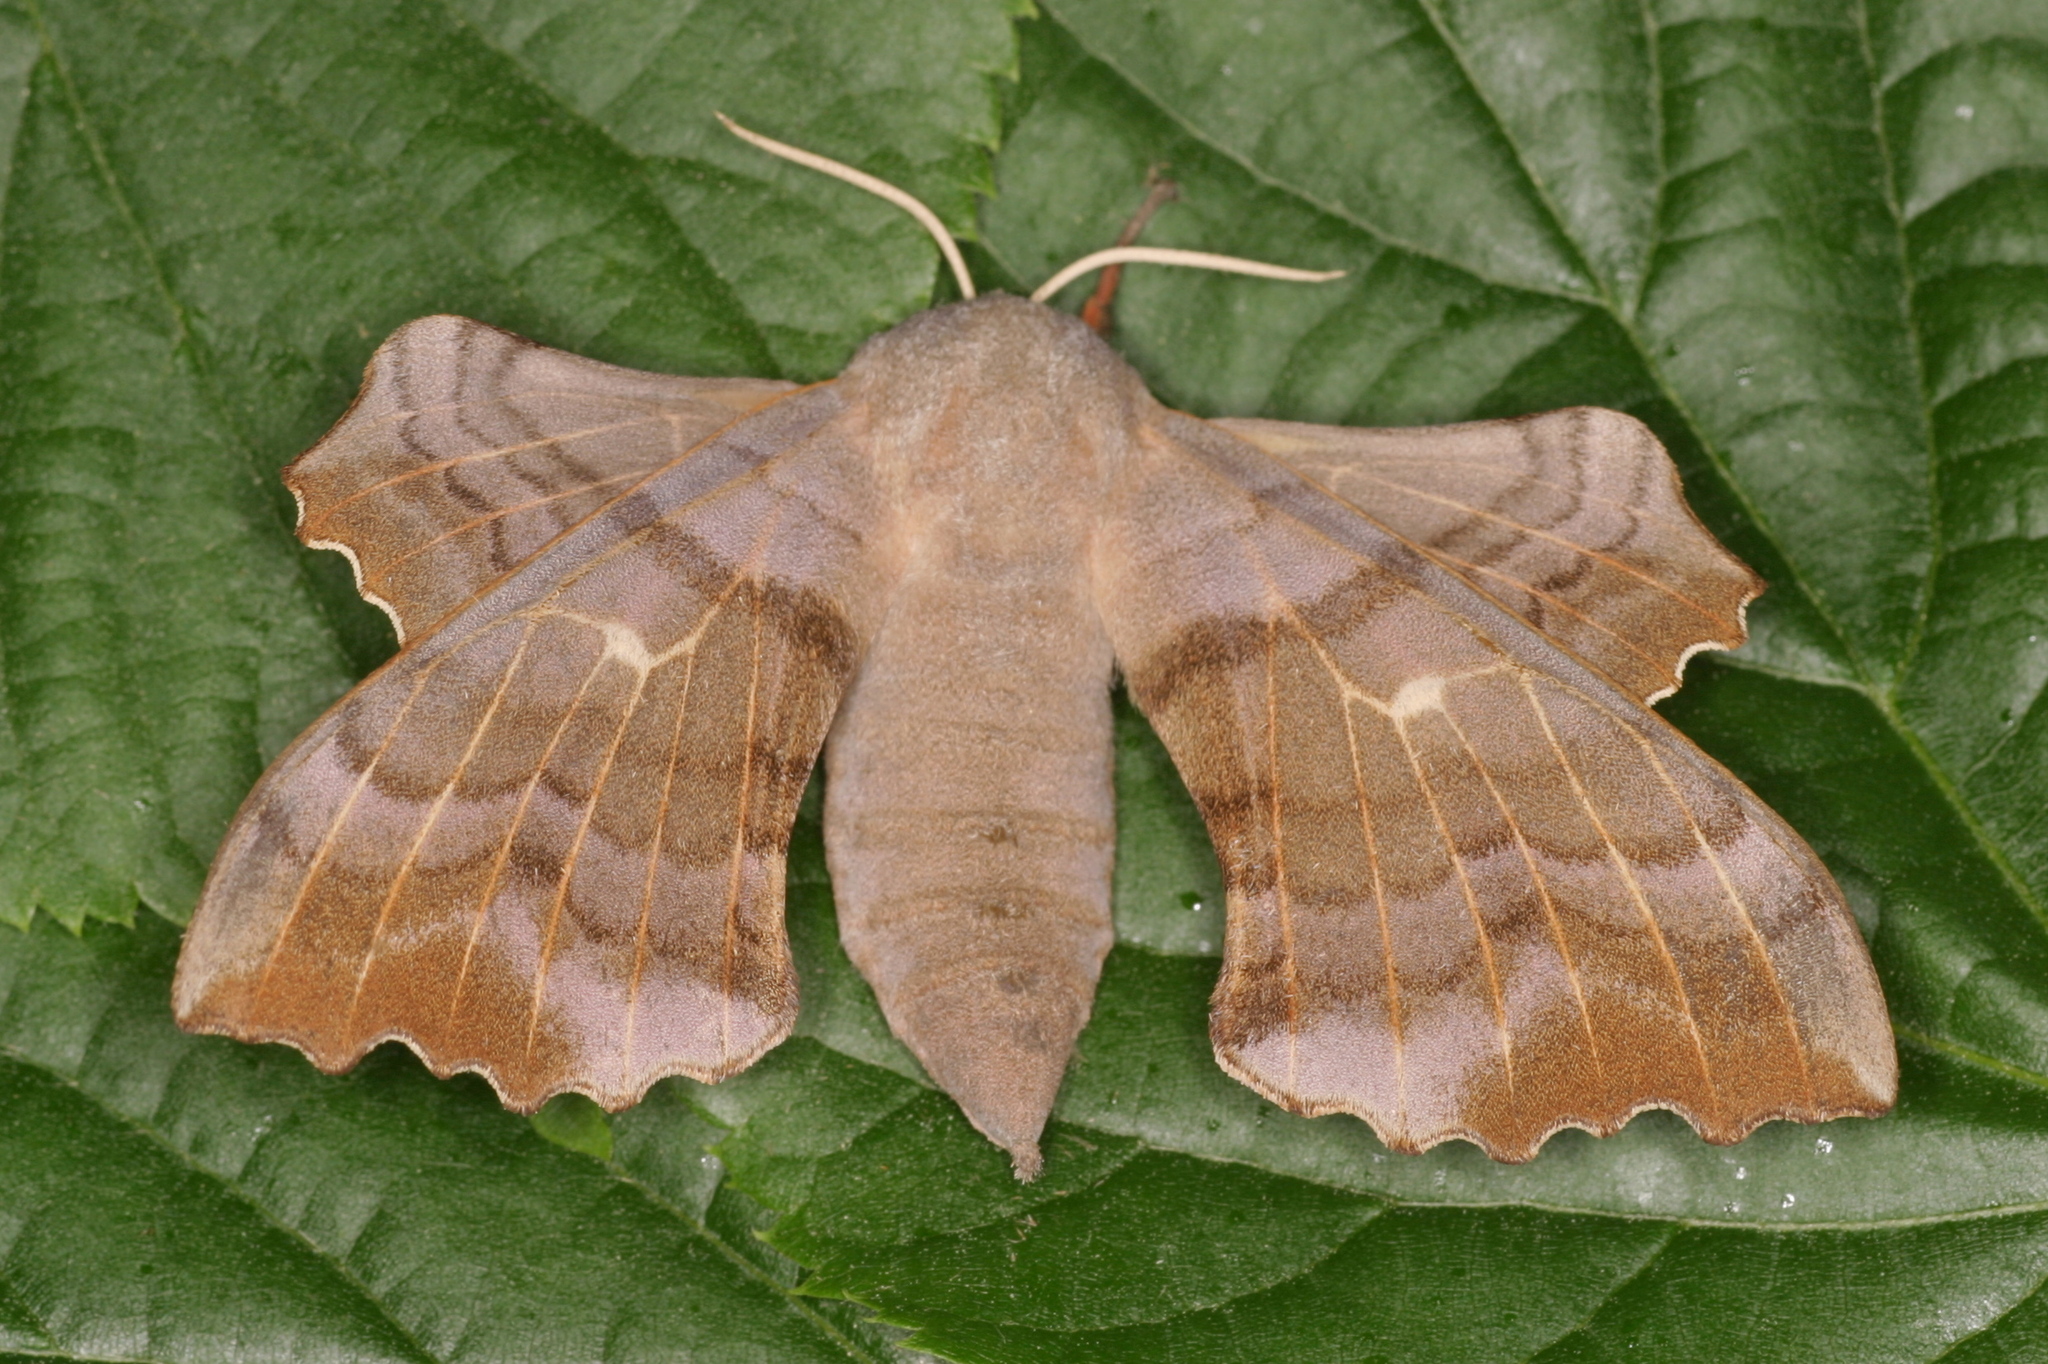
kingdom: Animalia
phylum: Arthropoda
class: Insecta
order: Lepidoptera
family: Sphingidae
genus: Laothoe
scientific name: Laothoe populi
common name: Poplar hawk-moth
